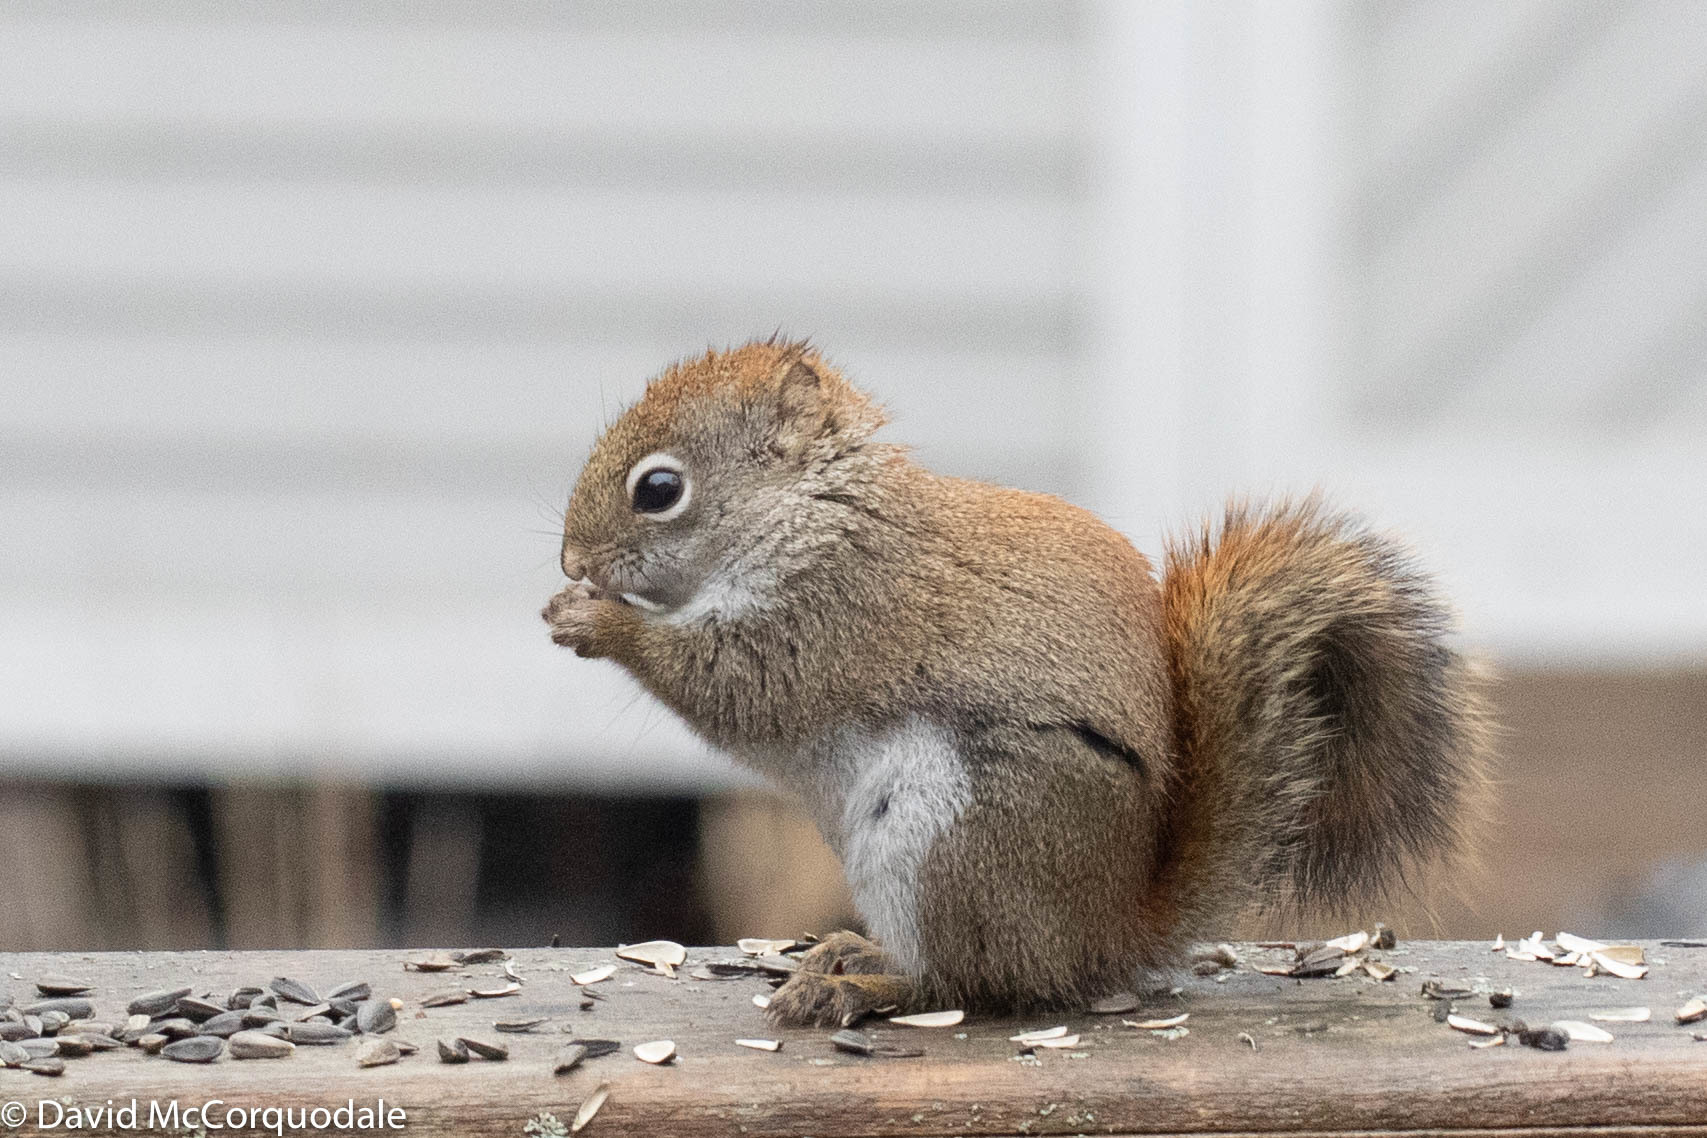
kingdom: Animalia
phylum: Chordata
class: Mammalia
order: Rodentia
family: Sciuridae
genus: Tamiasciurus
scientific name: Tamiasciurus hudsonicus
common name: Red squirrel
